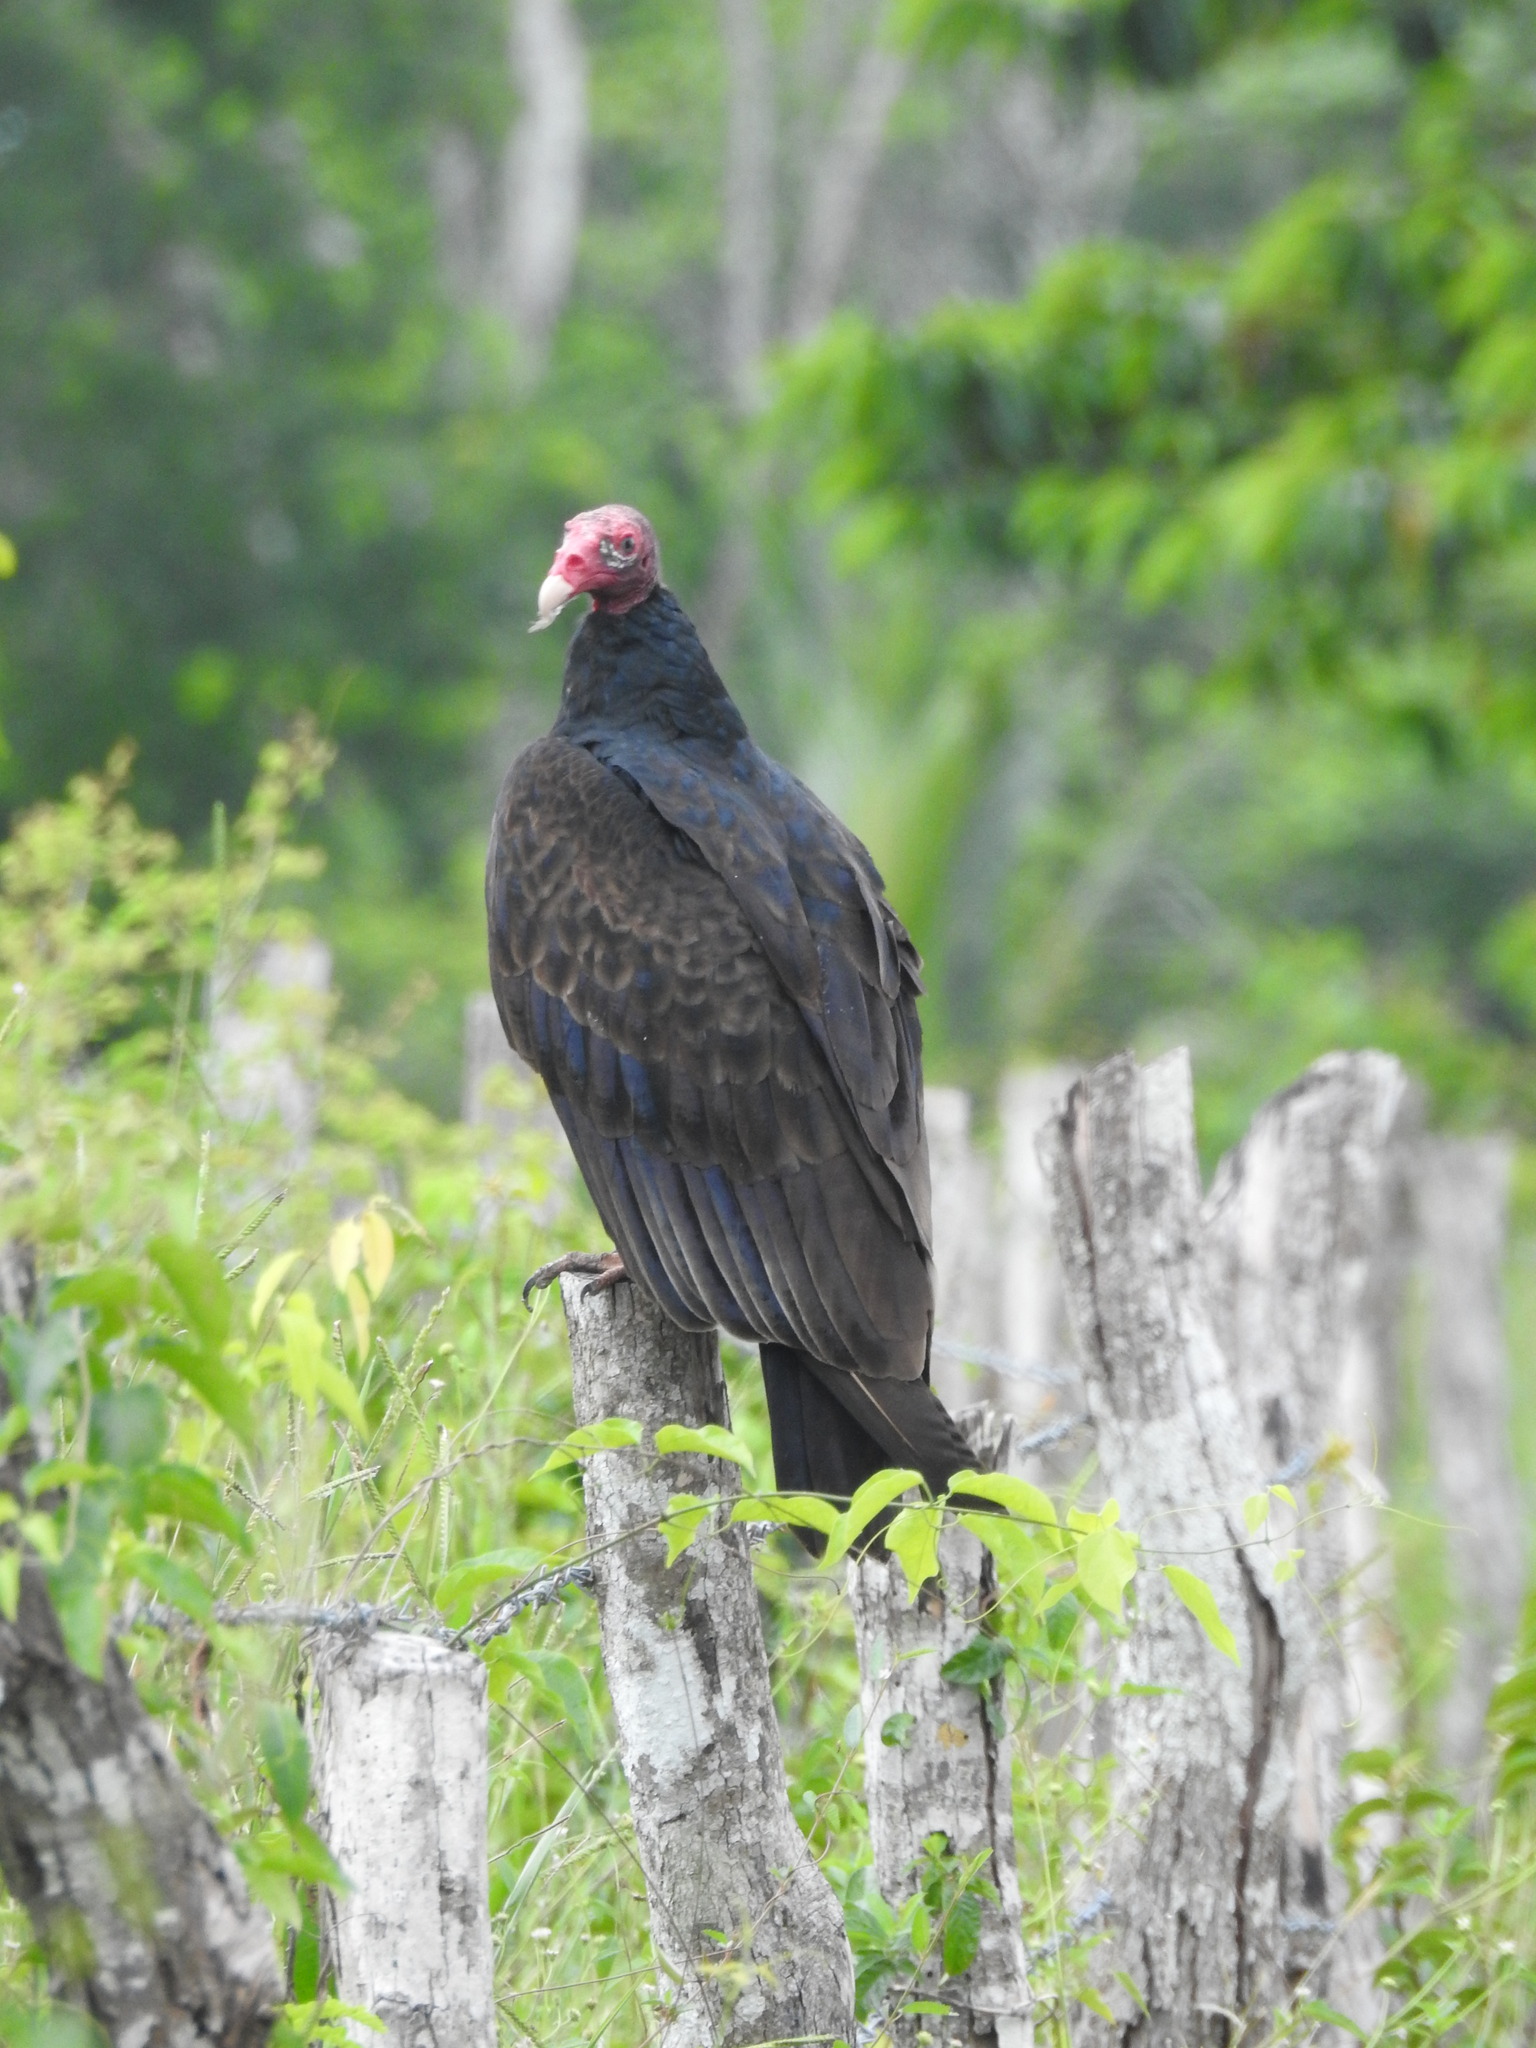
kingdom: Animalia
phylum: Chordata
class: Aves
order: Accipitriformes
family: Cathartidae
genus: Cathartes
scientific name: Cathartes aura
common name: Turkey vulture
